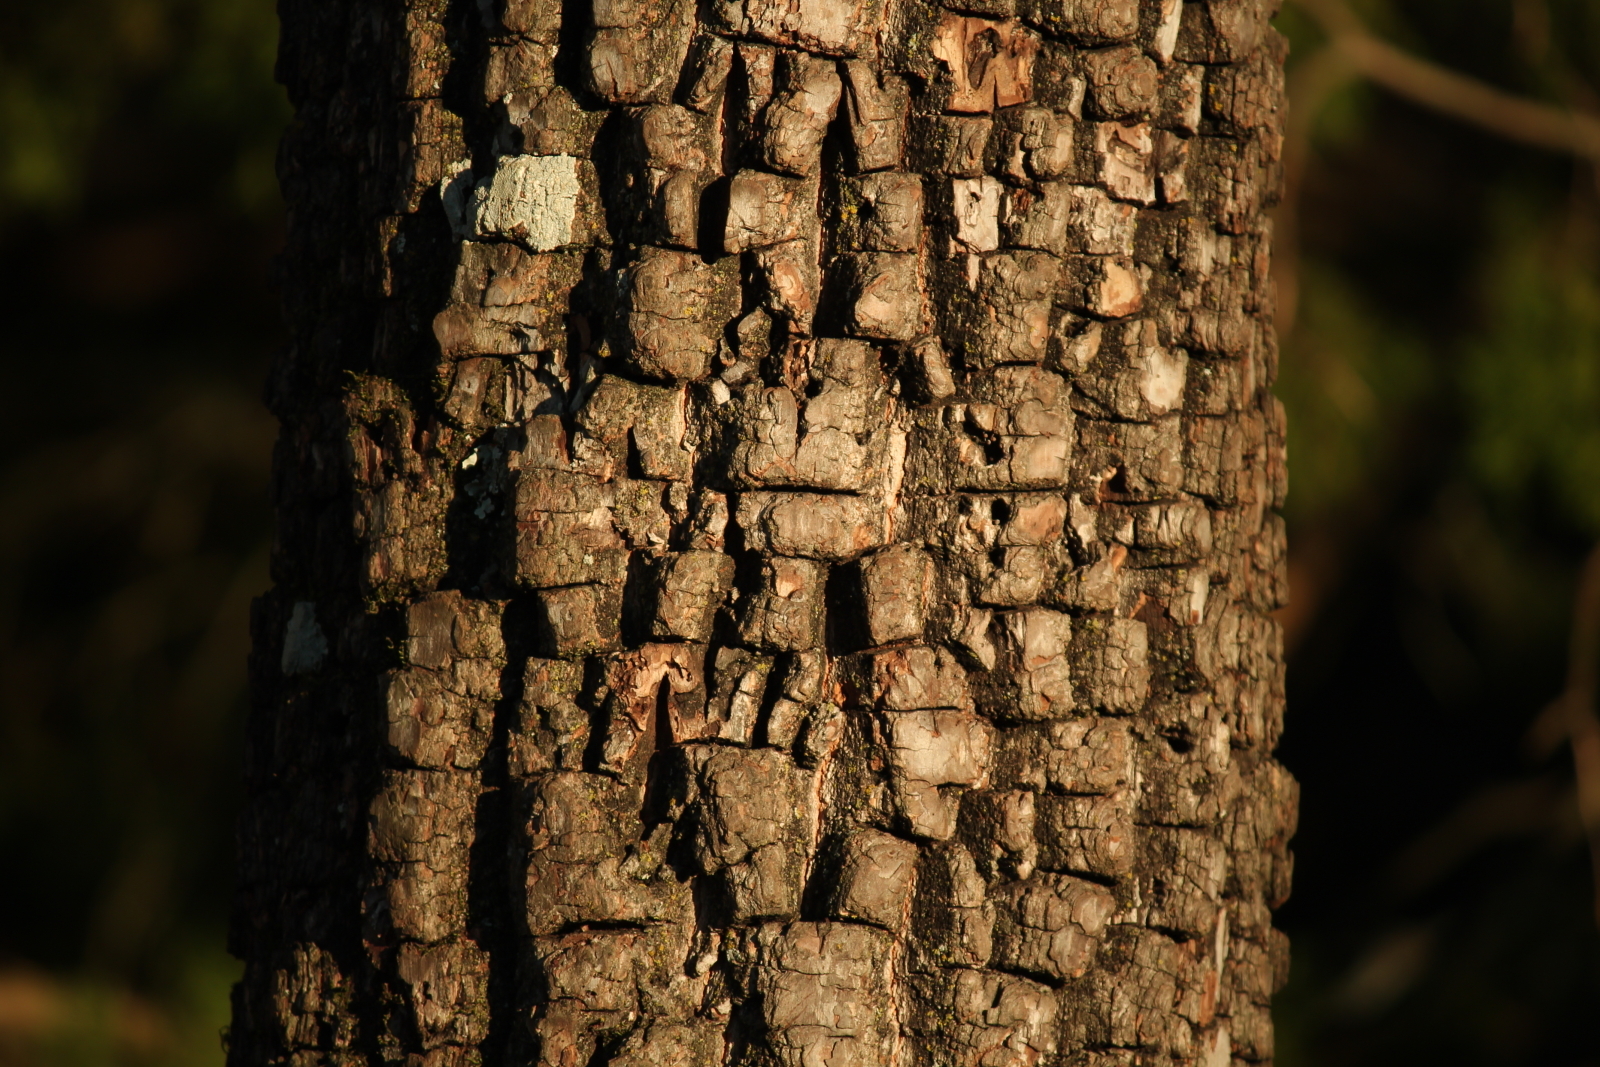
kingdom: Plantae
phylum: Tracheophyta
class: Magnoliopsida
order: Ericales
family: Ebenaceae
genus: Diospyros
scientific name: Diospyros virginiana
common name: Persimmon
